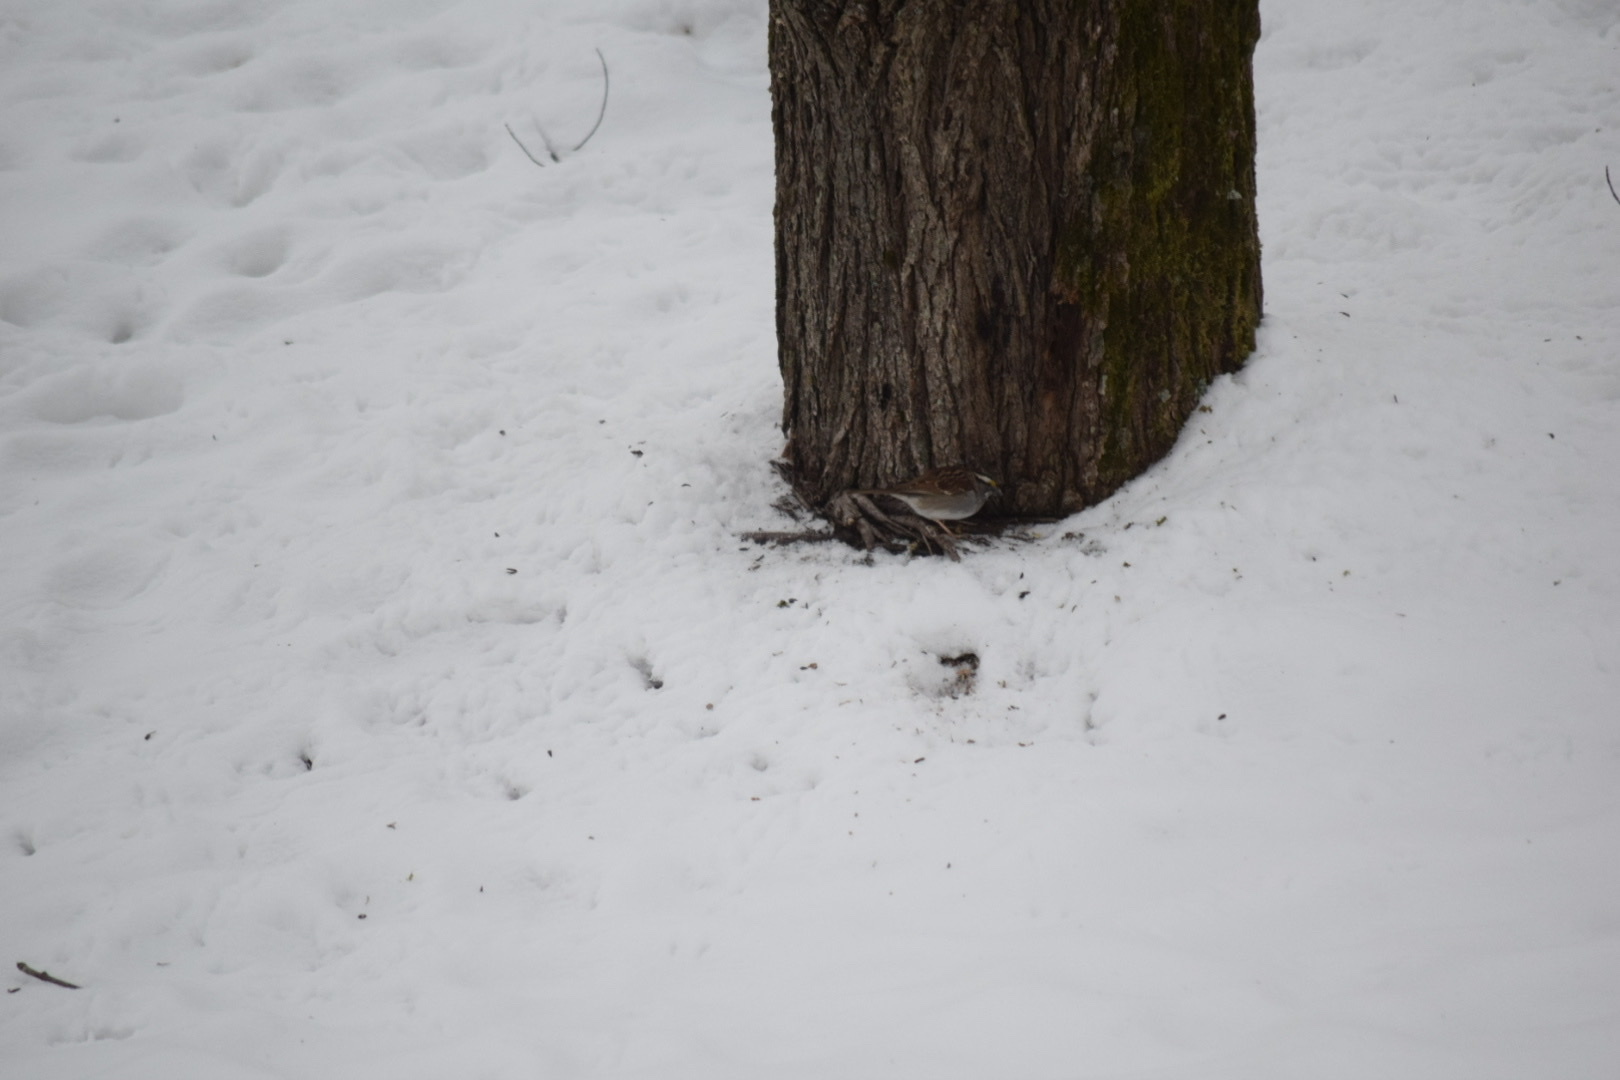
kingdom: Animalia
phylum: Chordata
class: Aves
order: Passeriformes
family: Passerellidae
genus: Zonotrichia
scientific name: Zonotrichia albicollis
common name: White-throated sparrow
